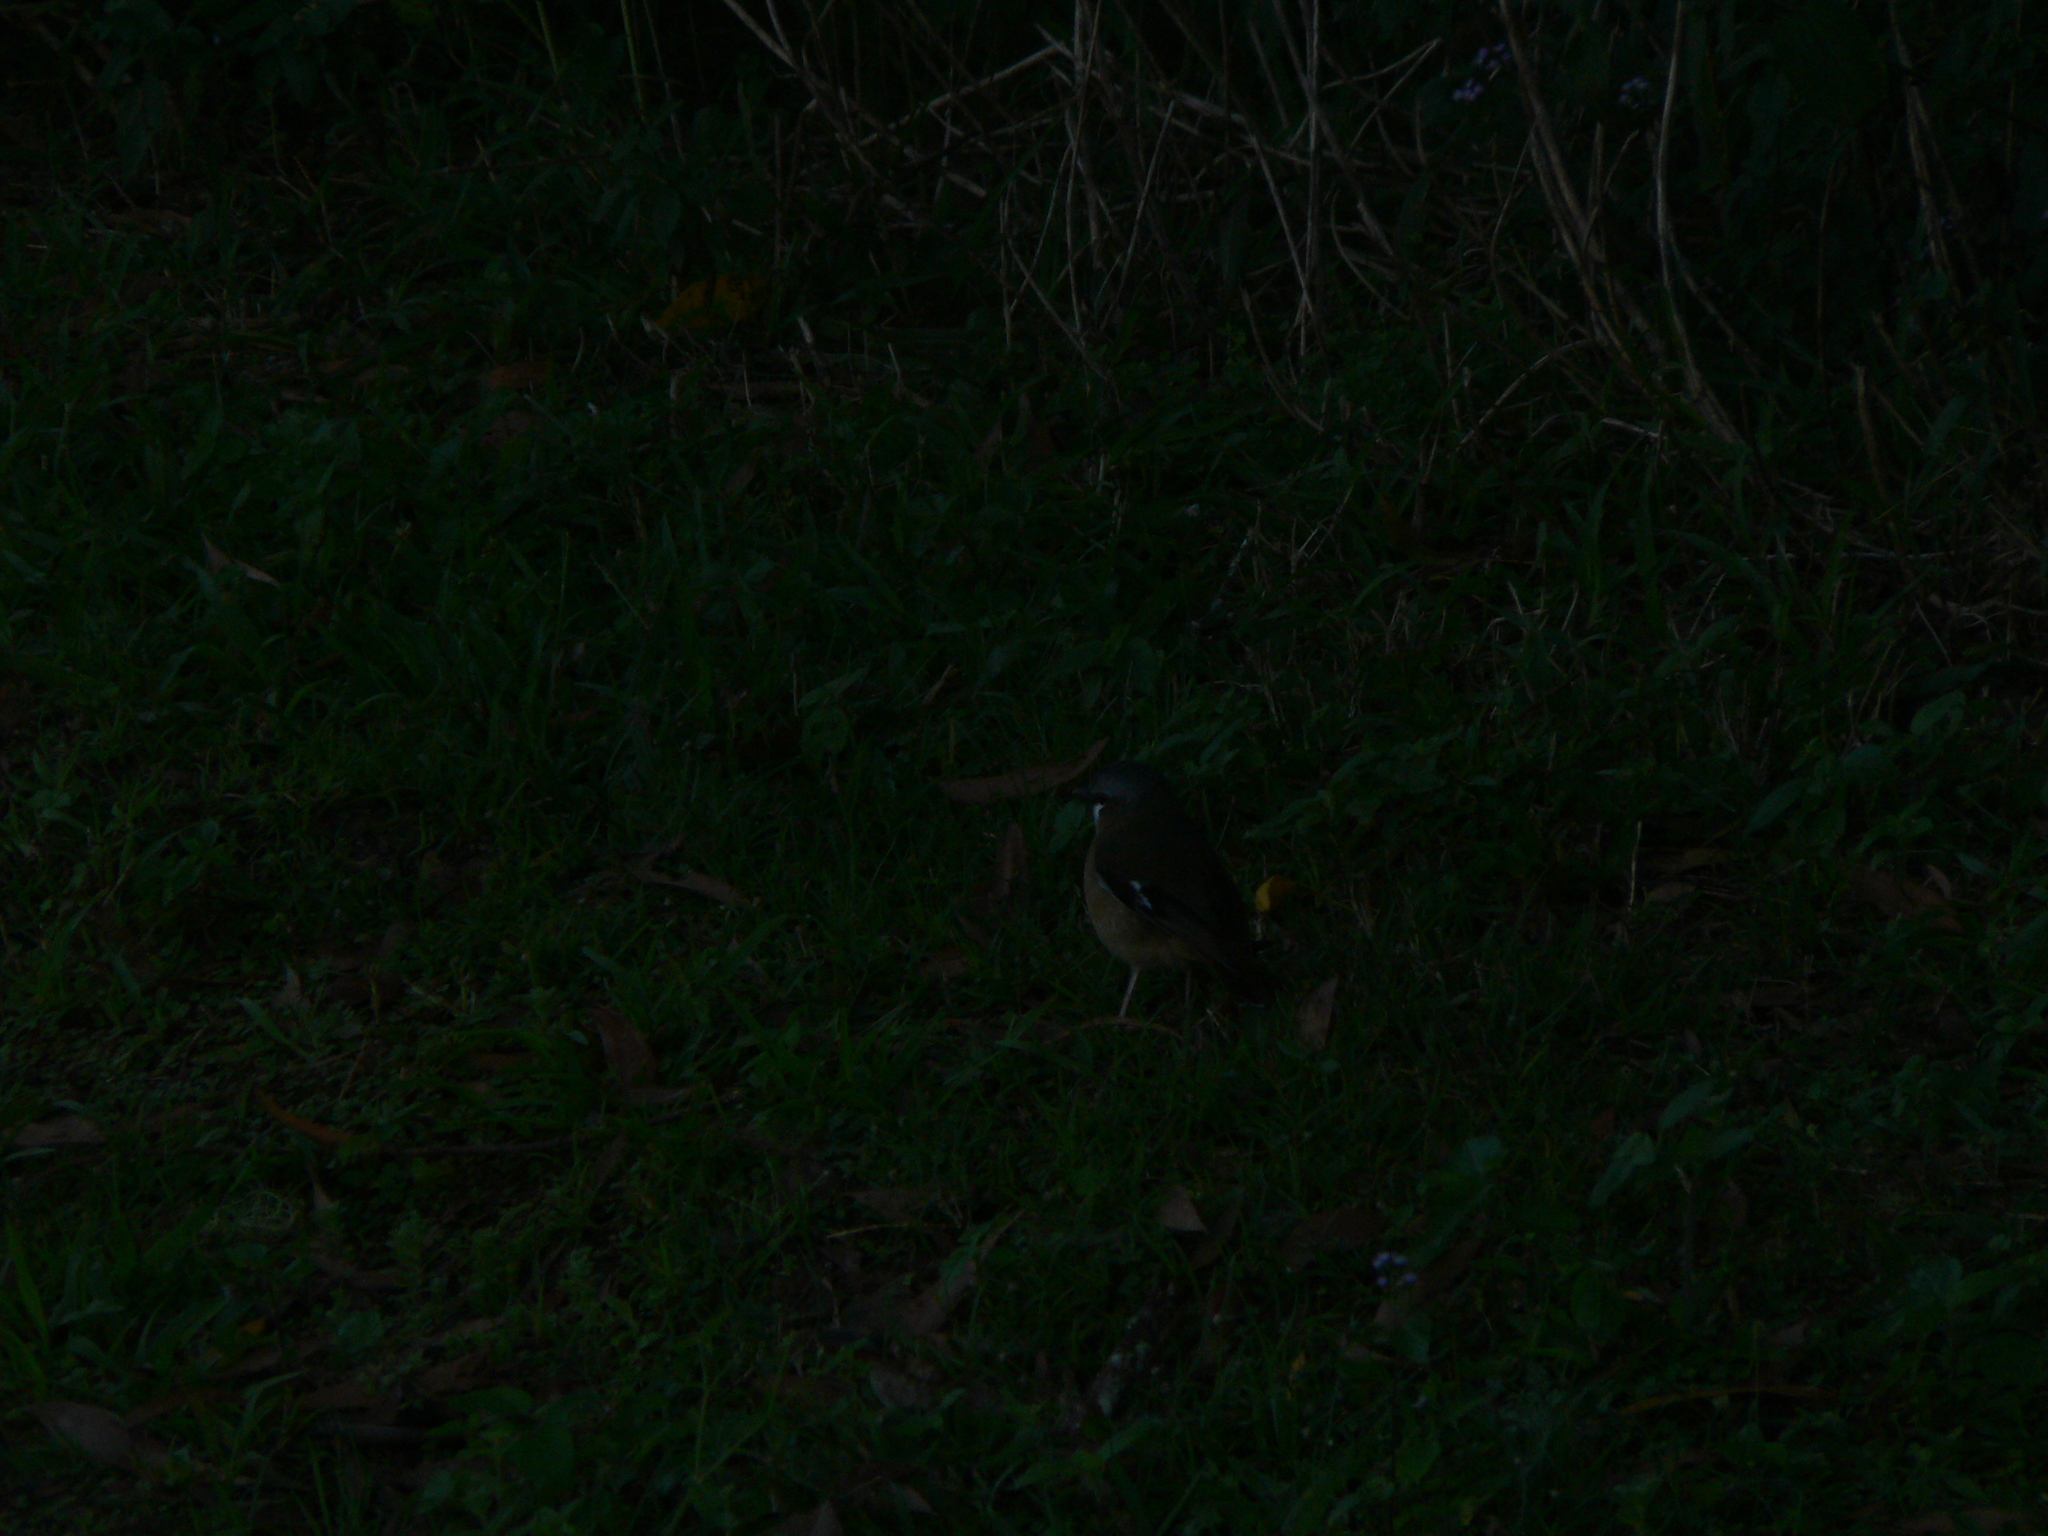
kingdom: Animalia
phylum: Chordata
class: Aves
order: Passeriformes
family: Petroicidae
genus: Heteromyias
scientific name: Heteromyias cinereifrons
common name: Grey-headed robin
